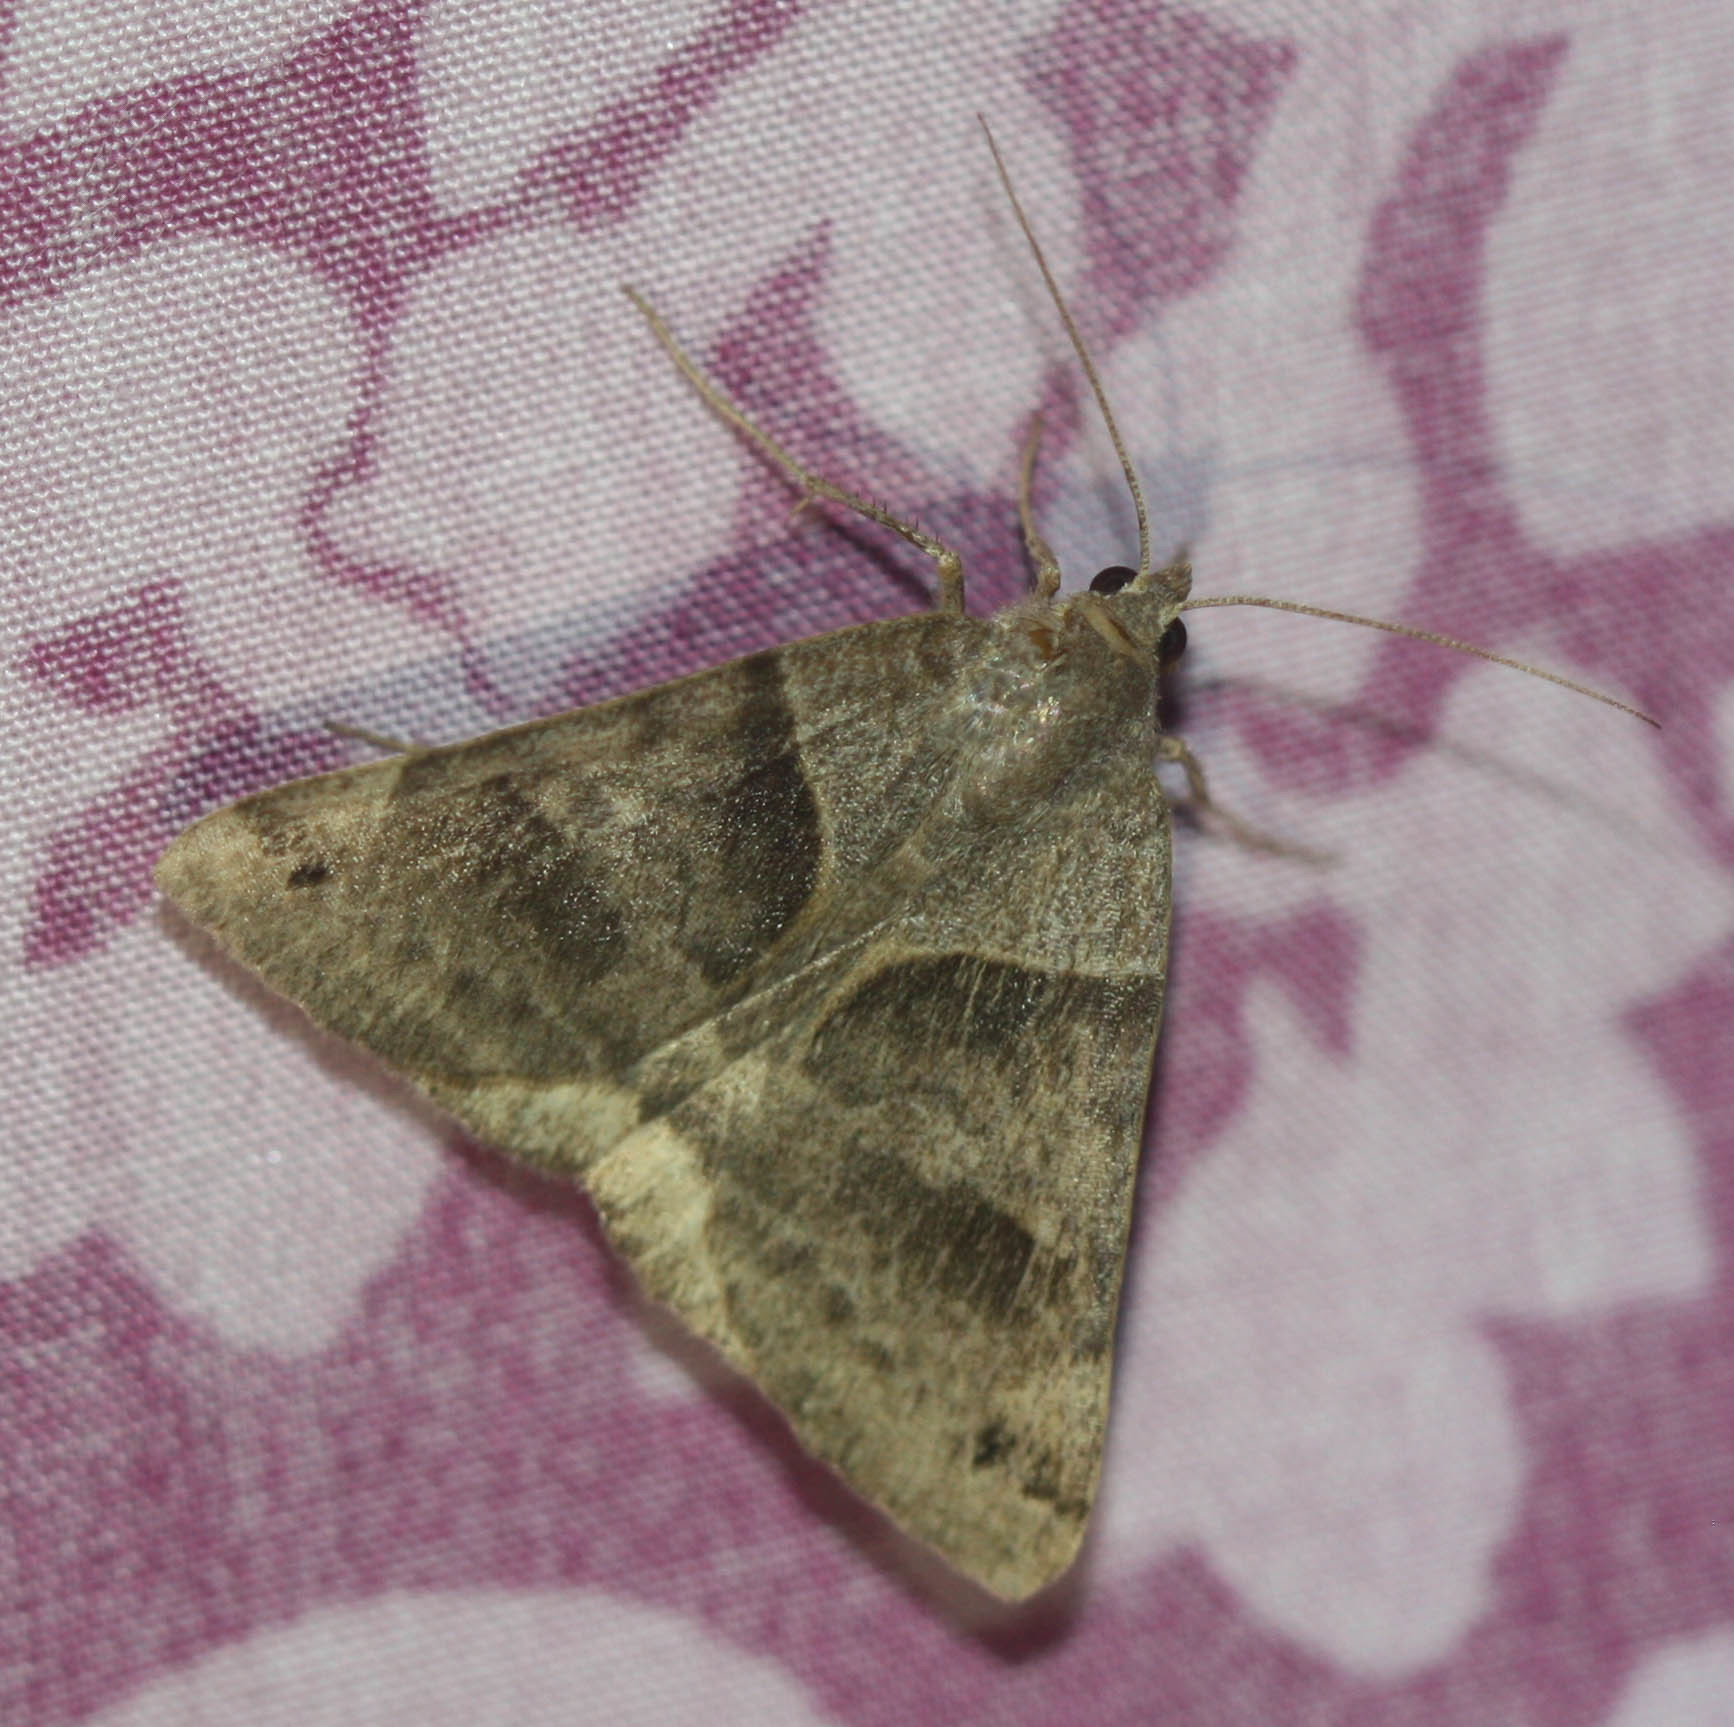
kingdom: Animalia
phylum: Arthropoda
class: Insecta
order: Lepidoptera
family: Erebidae
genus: Caenurgina
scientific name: Caenurgina crassiuscula
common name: Double-barred
